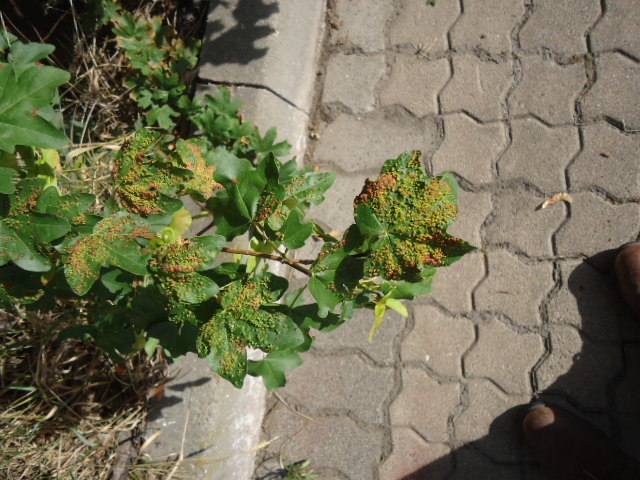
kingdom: Animalia
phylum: Arthropoda
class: Arachnida
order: Trombidiformes
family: Eriophyidae
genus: Aceria
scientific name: Aceria cephaloneus
